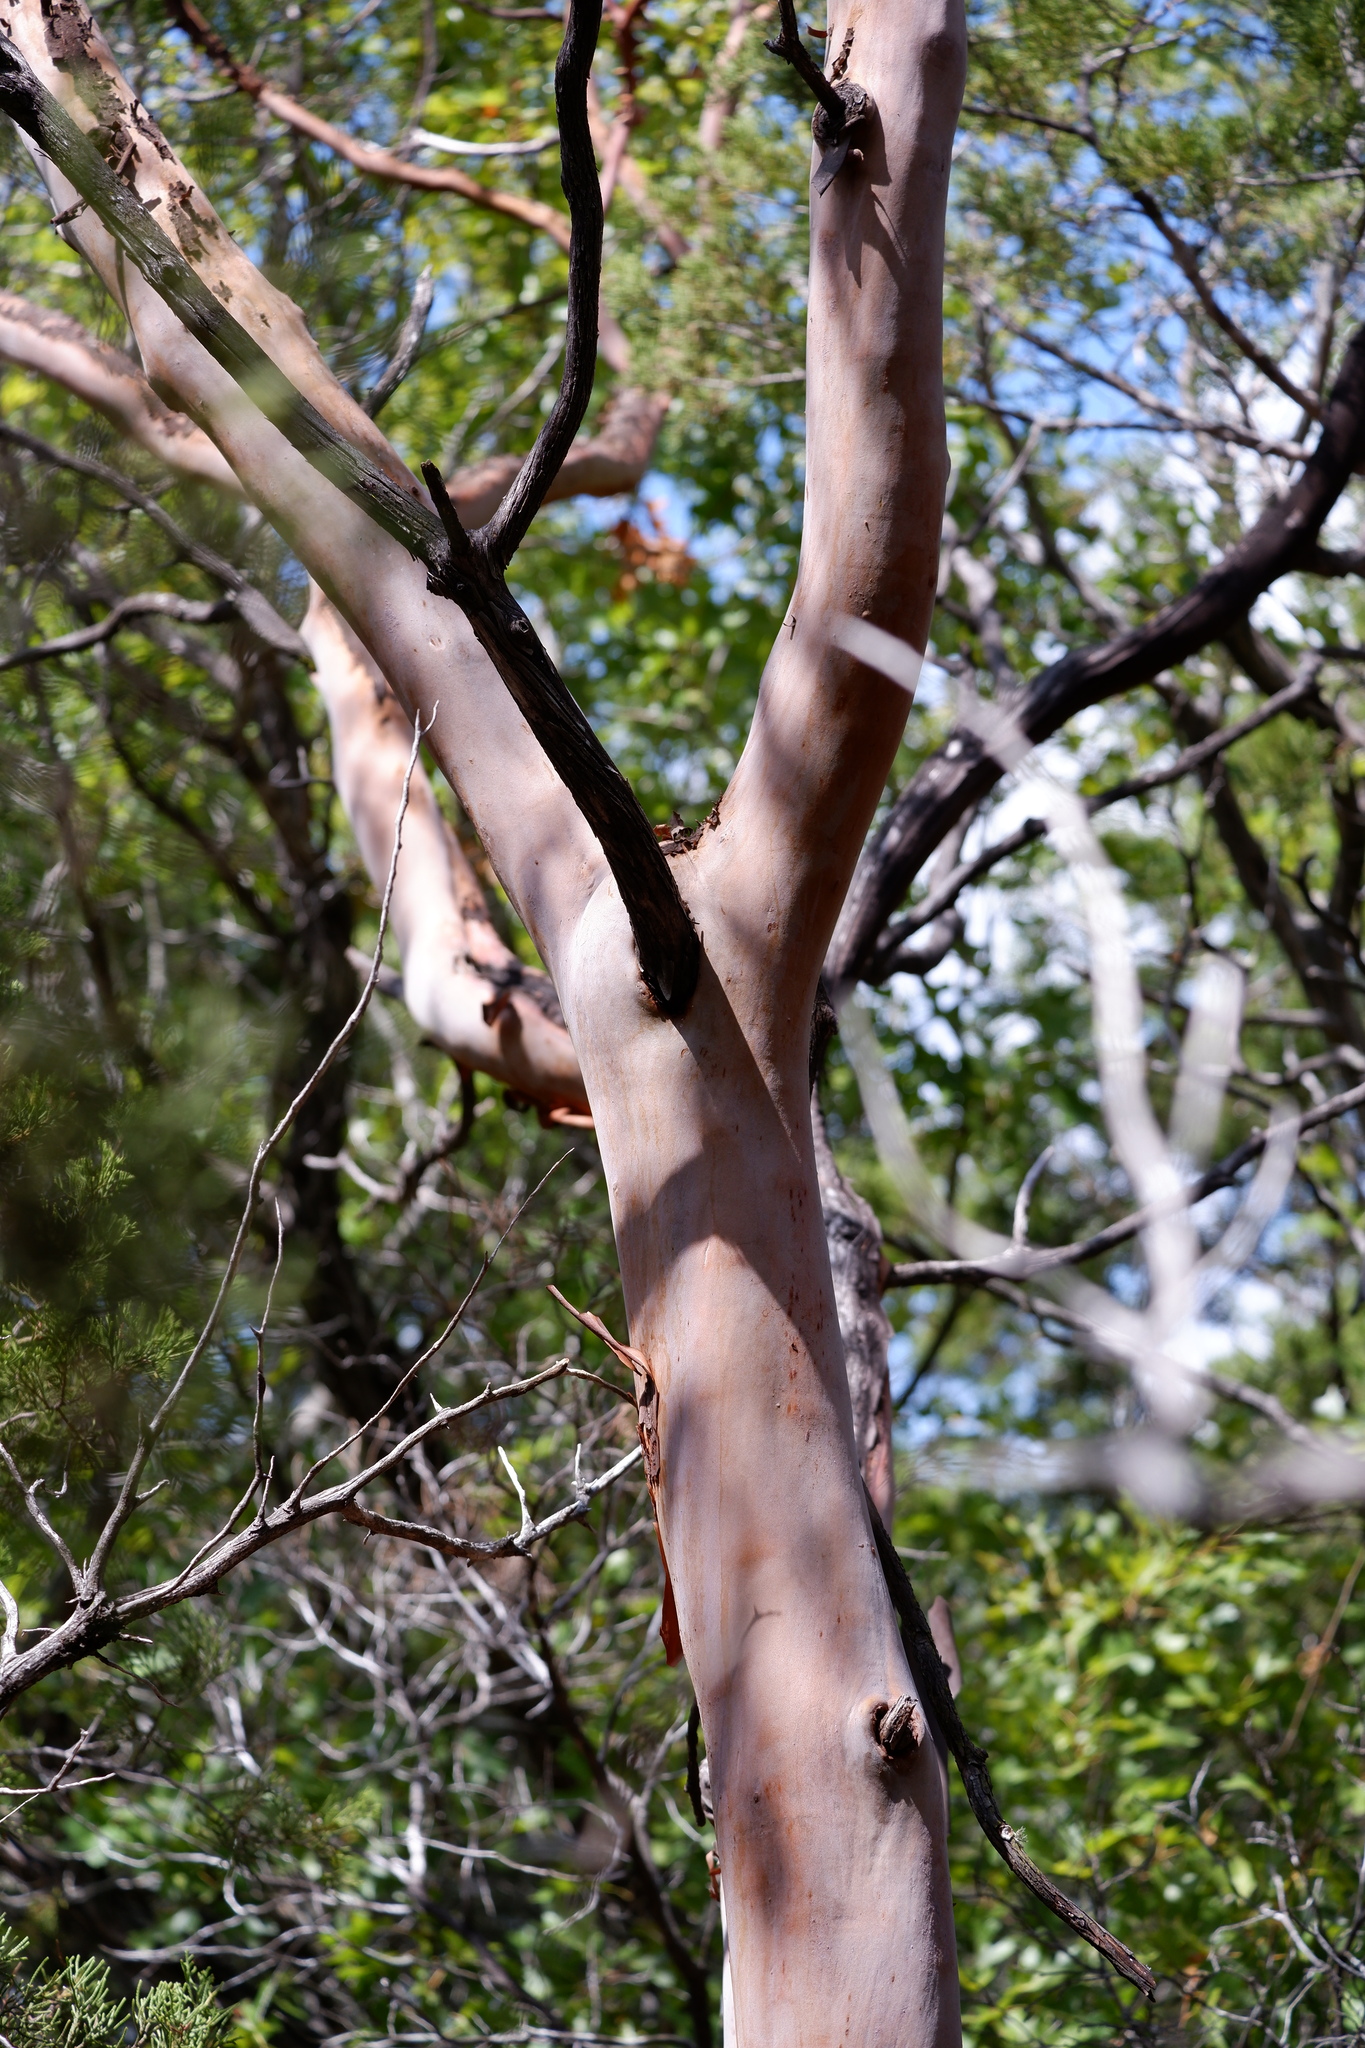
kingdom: Plantae
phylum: Tracheophyta
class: Magnoliopsida
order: Ericales
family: Ericaceae
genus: Arbutus
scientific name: Arbutus xalapensis
